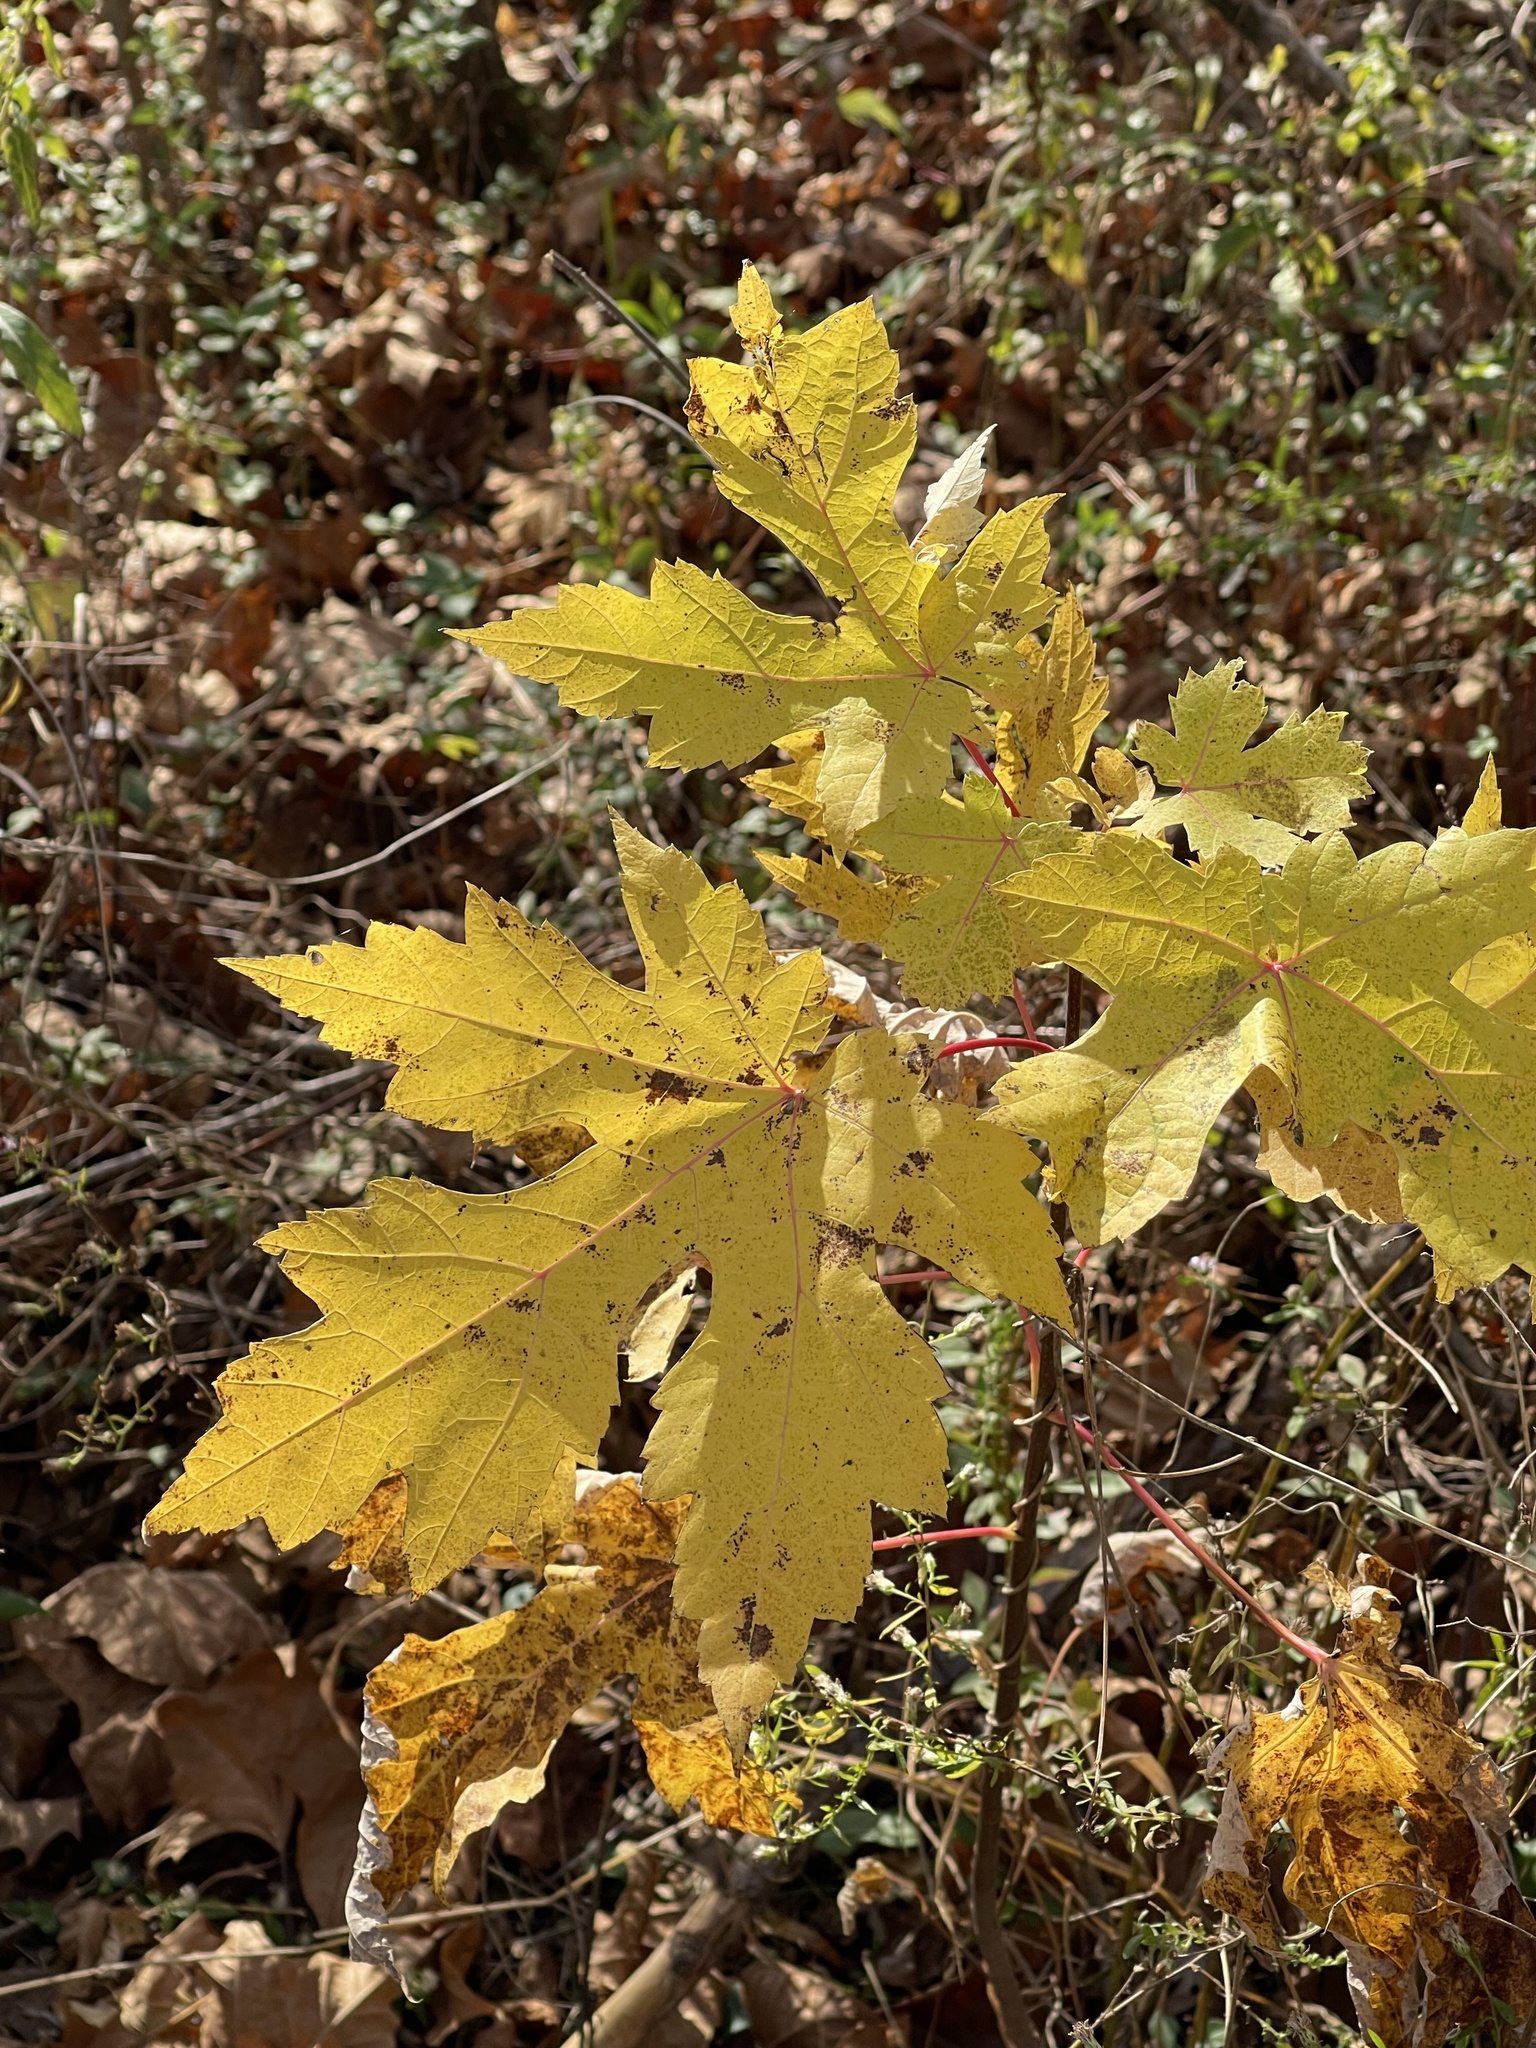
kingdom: Plantae
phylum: Tracheophyta
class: Magnoliopsida
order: Sapindales
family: Sapindaceae
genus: Acer
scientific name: Acer saccharinum
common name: Silver maple
